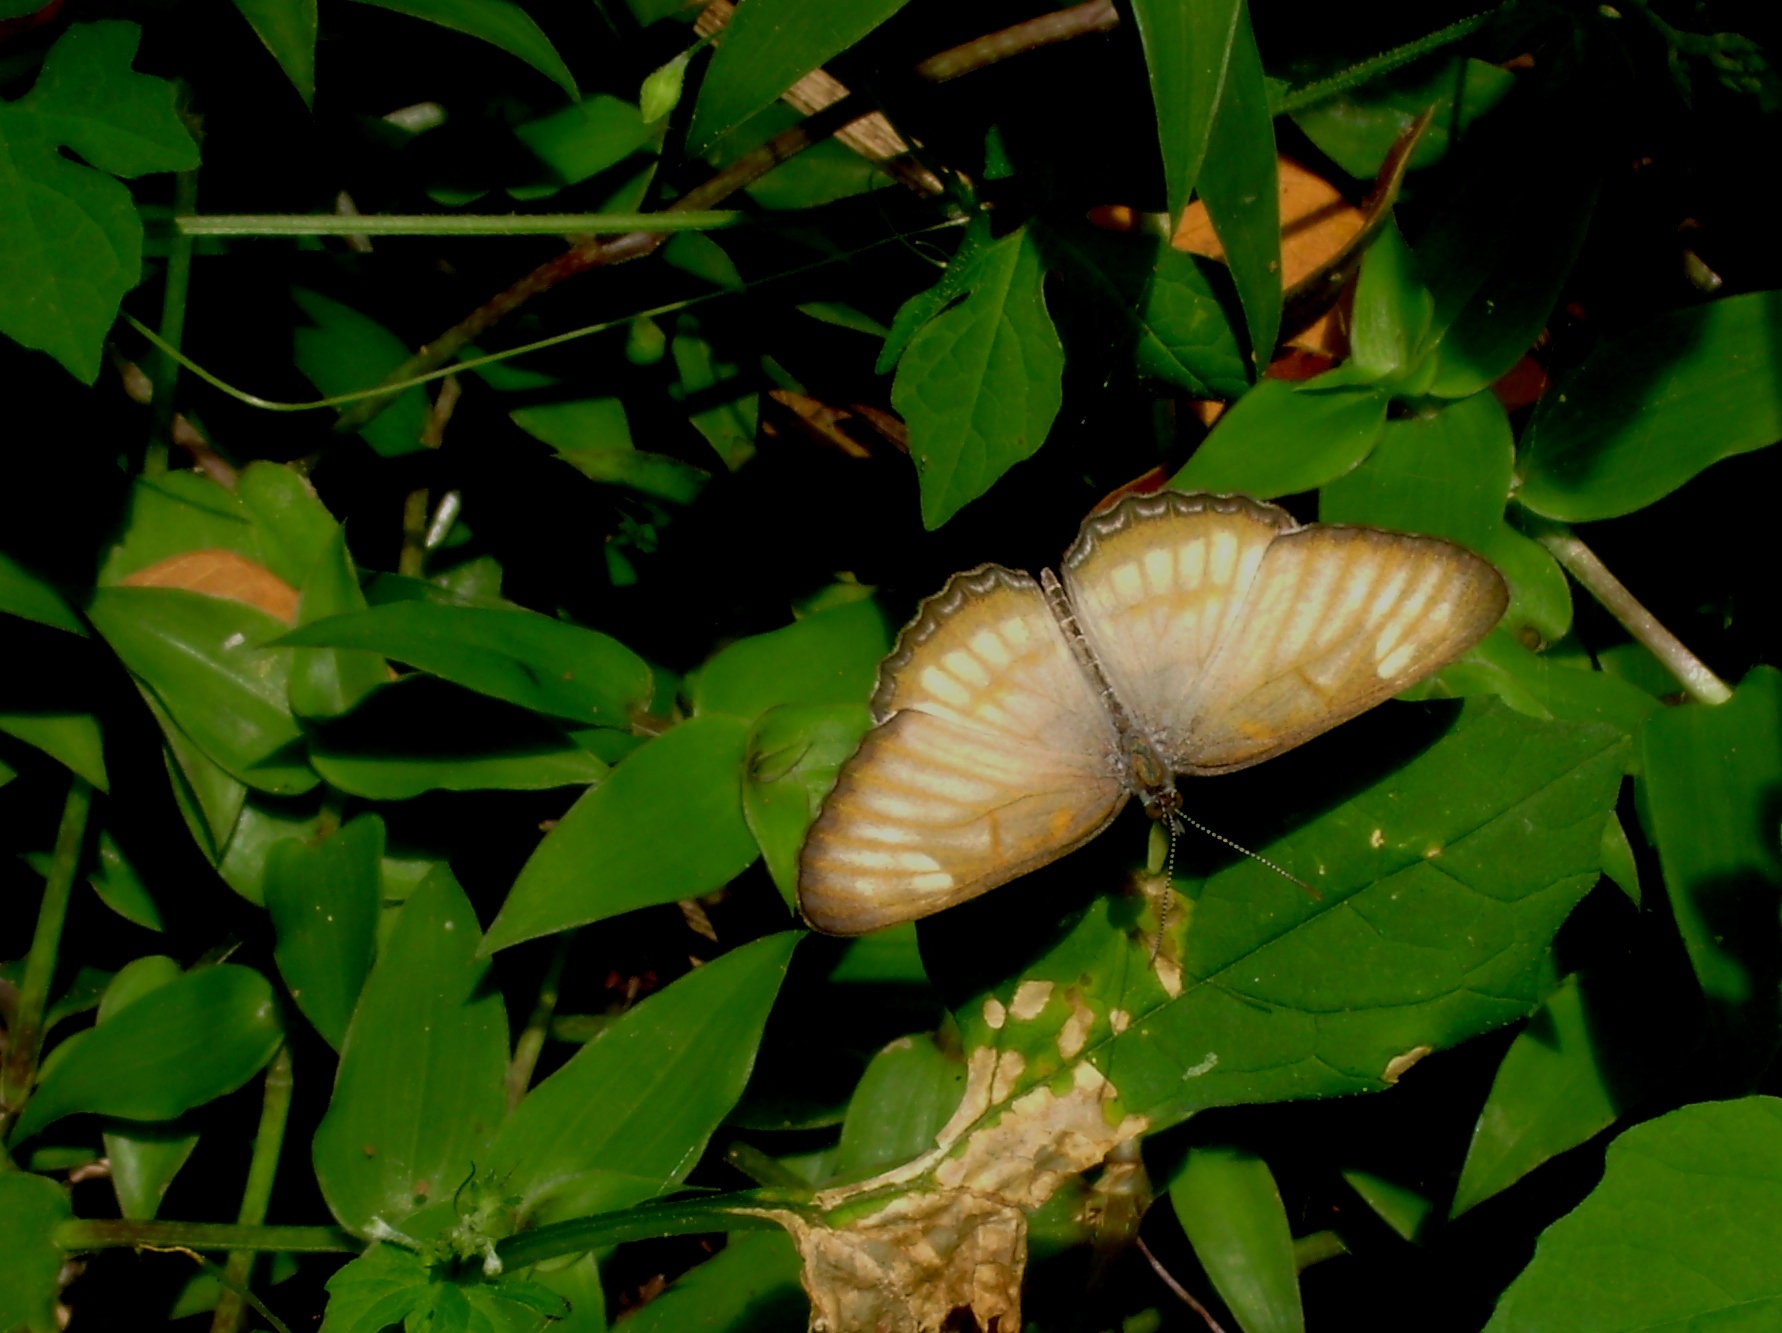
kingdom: Animalia
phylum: Arthropoda
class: Insecta
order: Lepidoptera
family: Nymphalidae
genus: Mestra
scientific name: Mestra hersilia
